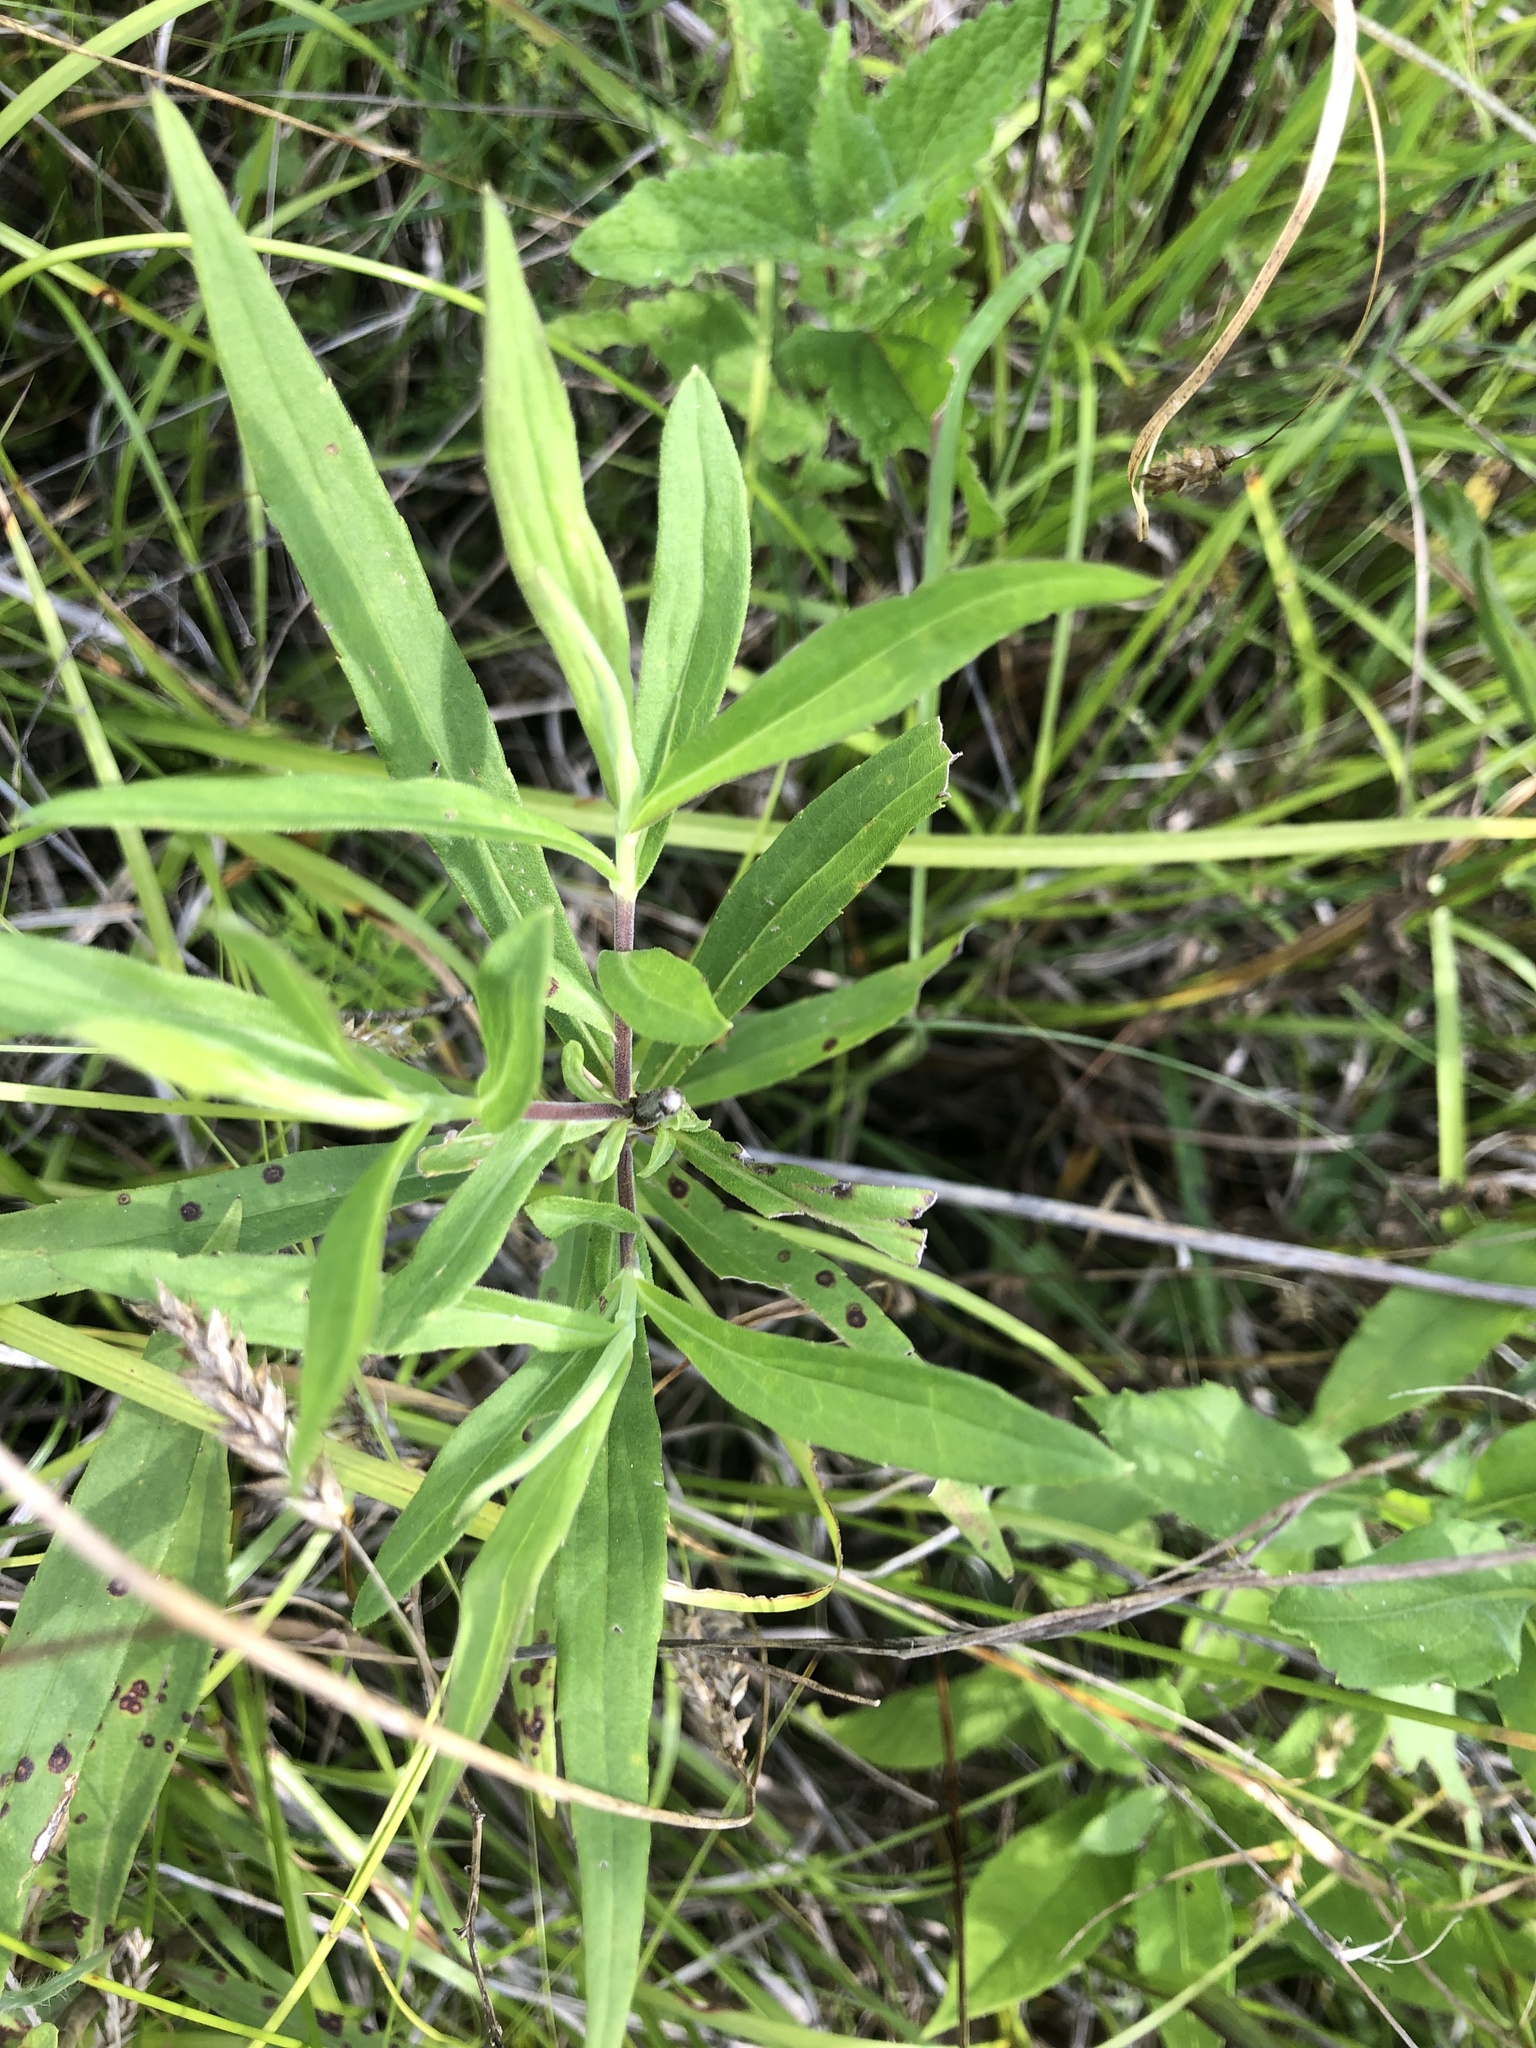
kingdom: Plantae
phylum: Tracheophyta
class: Magnoliopsida
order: Asterales
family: Asteraceae
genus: Solidago
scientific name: Solidago altissima
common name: Late goldenrod
